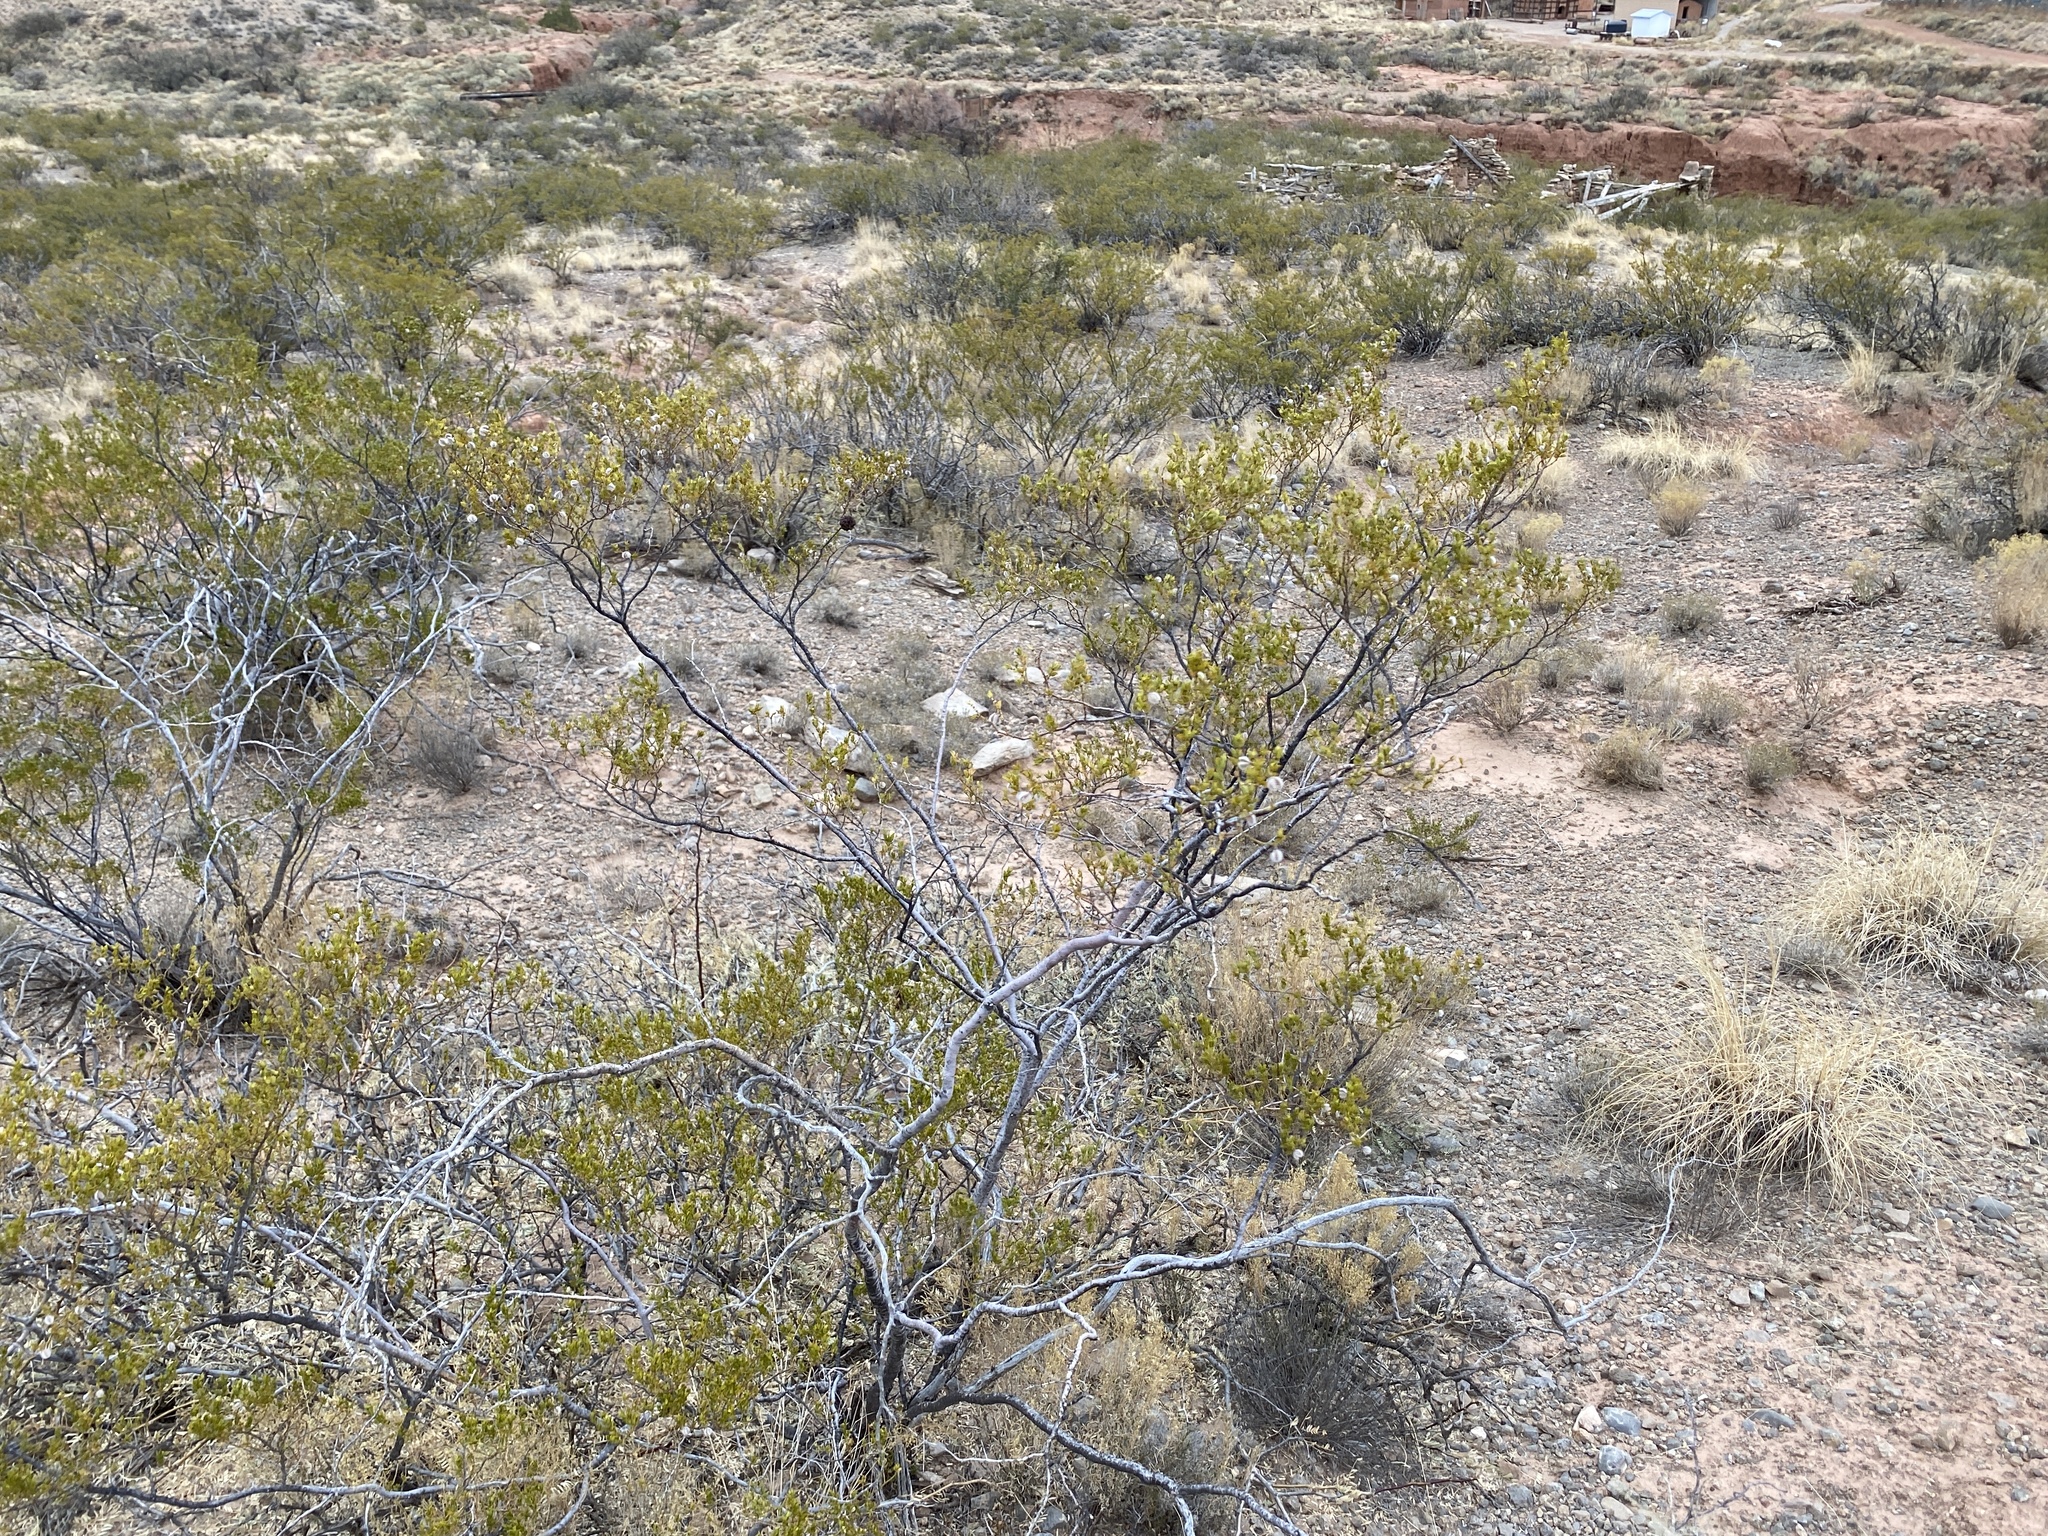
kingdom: Plantae
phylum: Tracheophyta
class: Magnoliopsida
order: Zygophyllales
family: Zygophyllaceae
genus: Larrea
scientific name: Larrea tridentata
